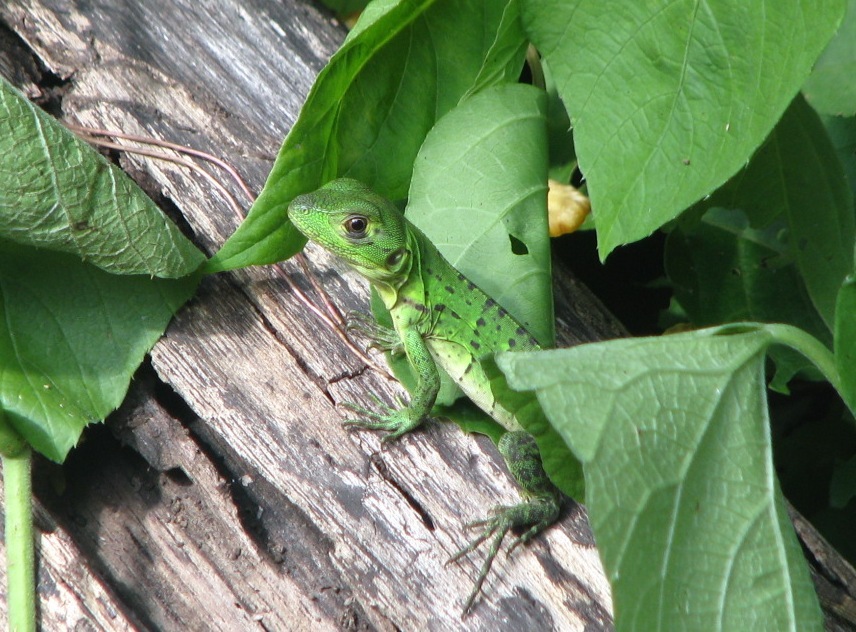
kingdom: Animalia
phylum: Chordata
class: Squamata
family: Iguanidae
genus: Ctenosaura
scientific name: Ctenosaura similis
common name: Black spiny-tailed iguana
